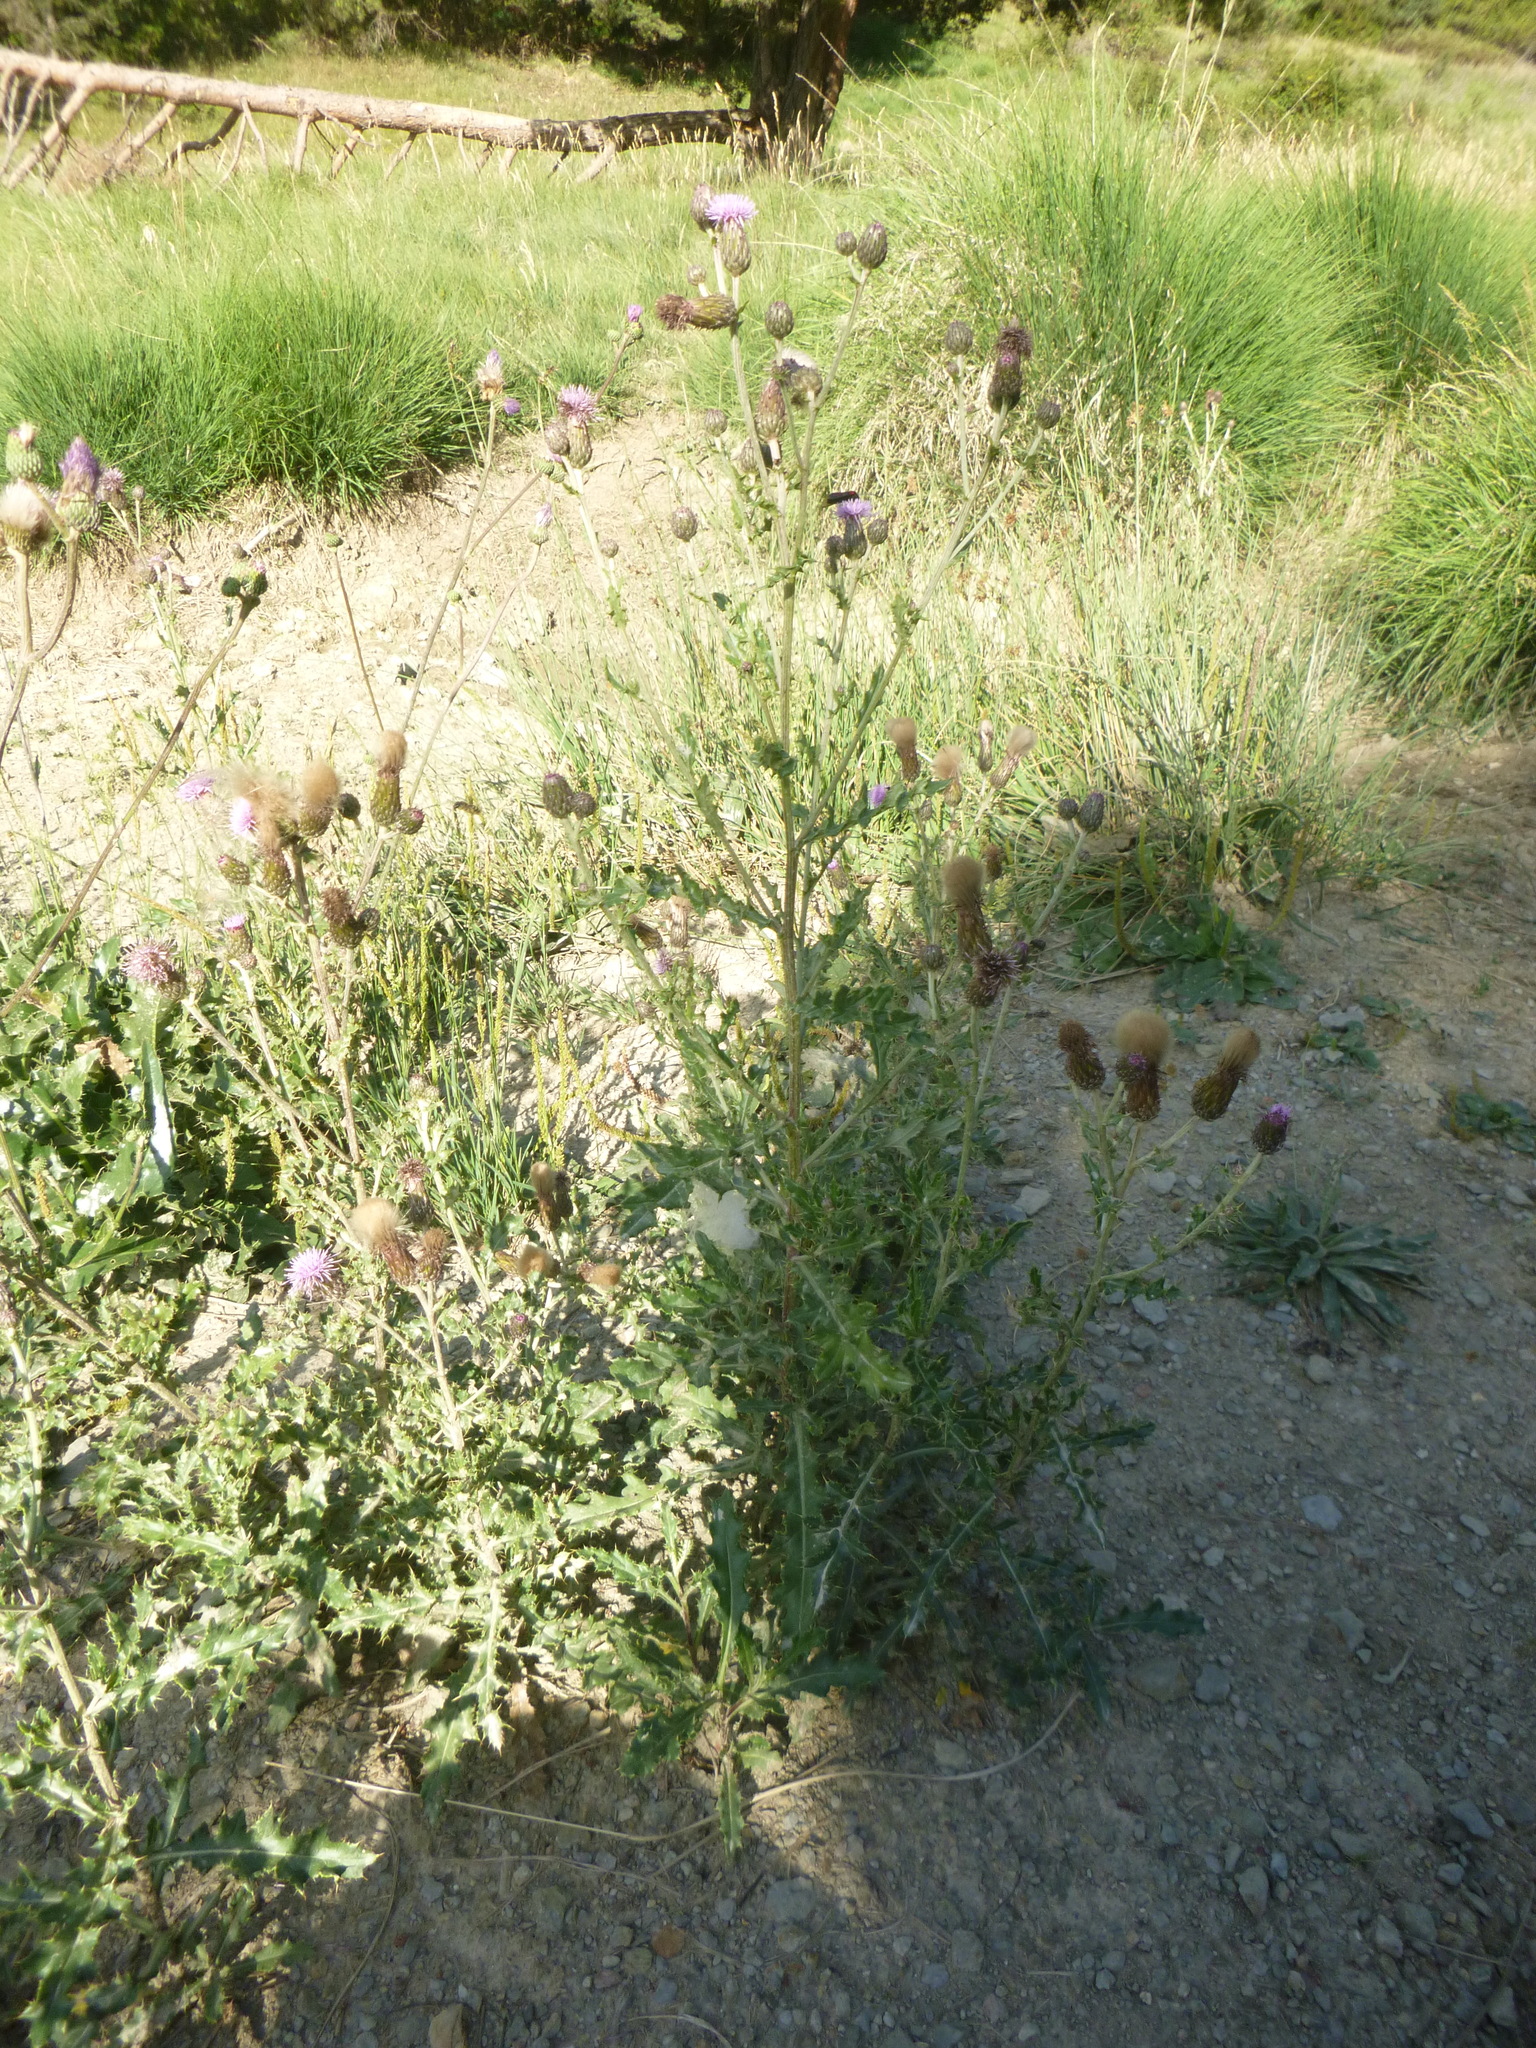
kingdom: Plantae
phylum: Tracheophyta
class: Magnoliopsida
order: Asterales
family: Asteraceae
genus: Cirsium
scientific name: Cirsium arvense
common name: Creeping thistle
